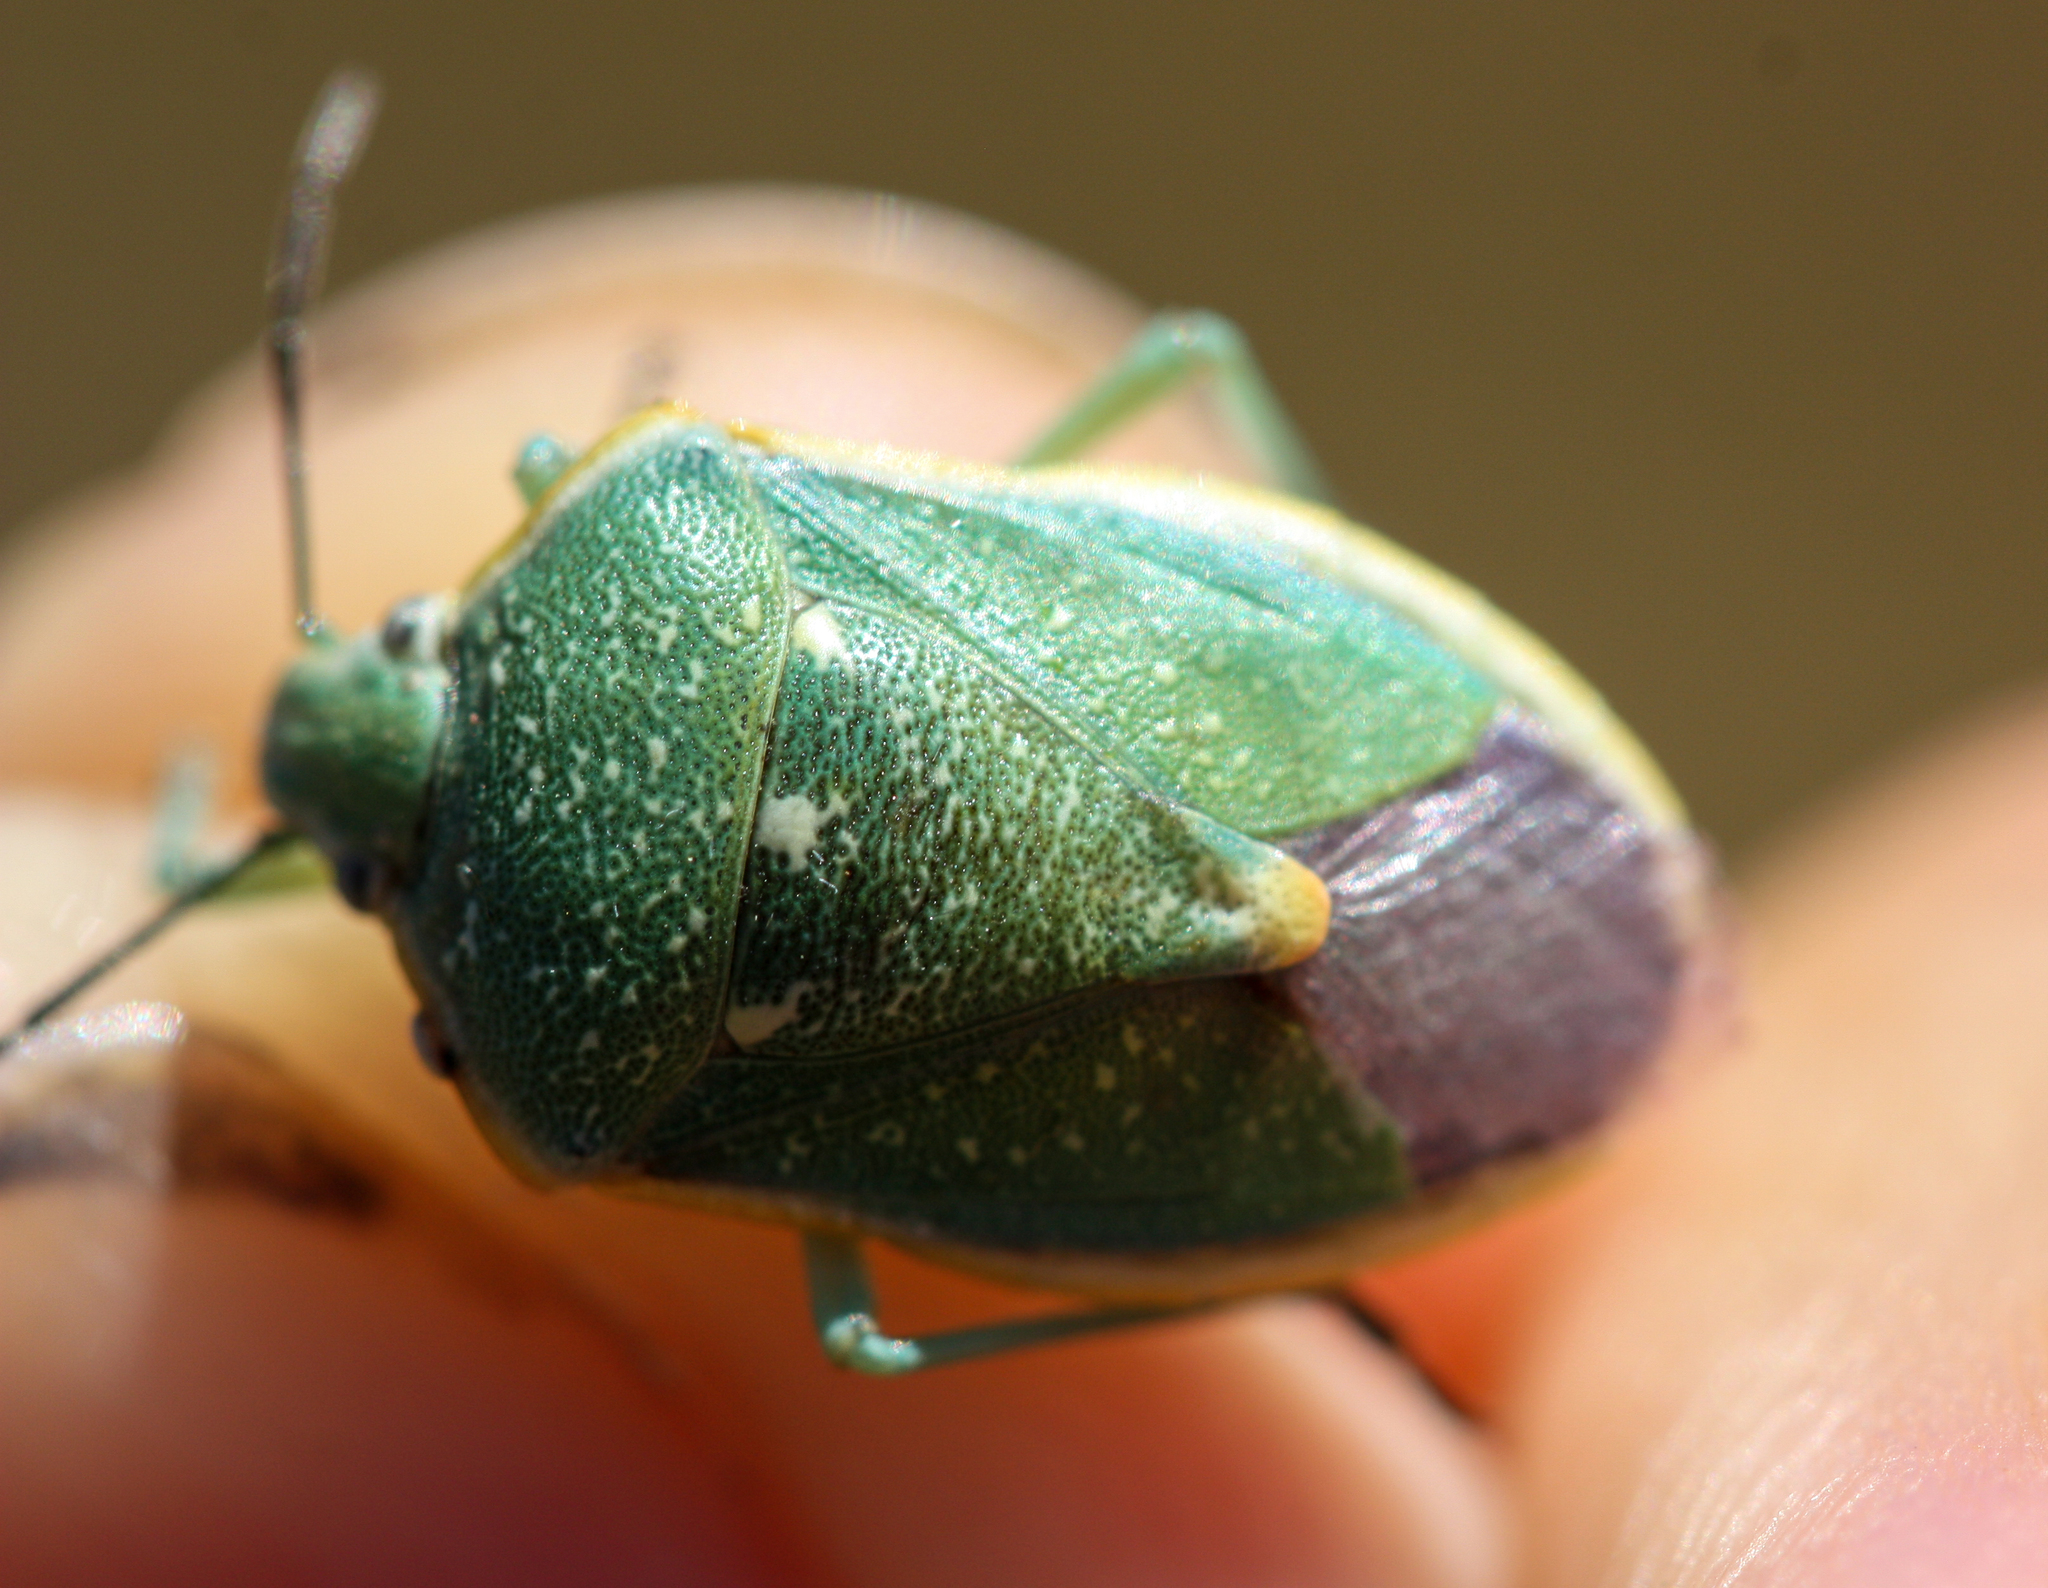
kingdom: Animalia
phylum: Arthropoda
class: Insecta
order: Hemiptera
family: Pentatomidae
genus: Chlorochroa
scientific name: Chlorochroa sayi
